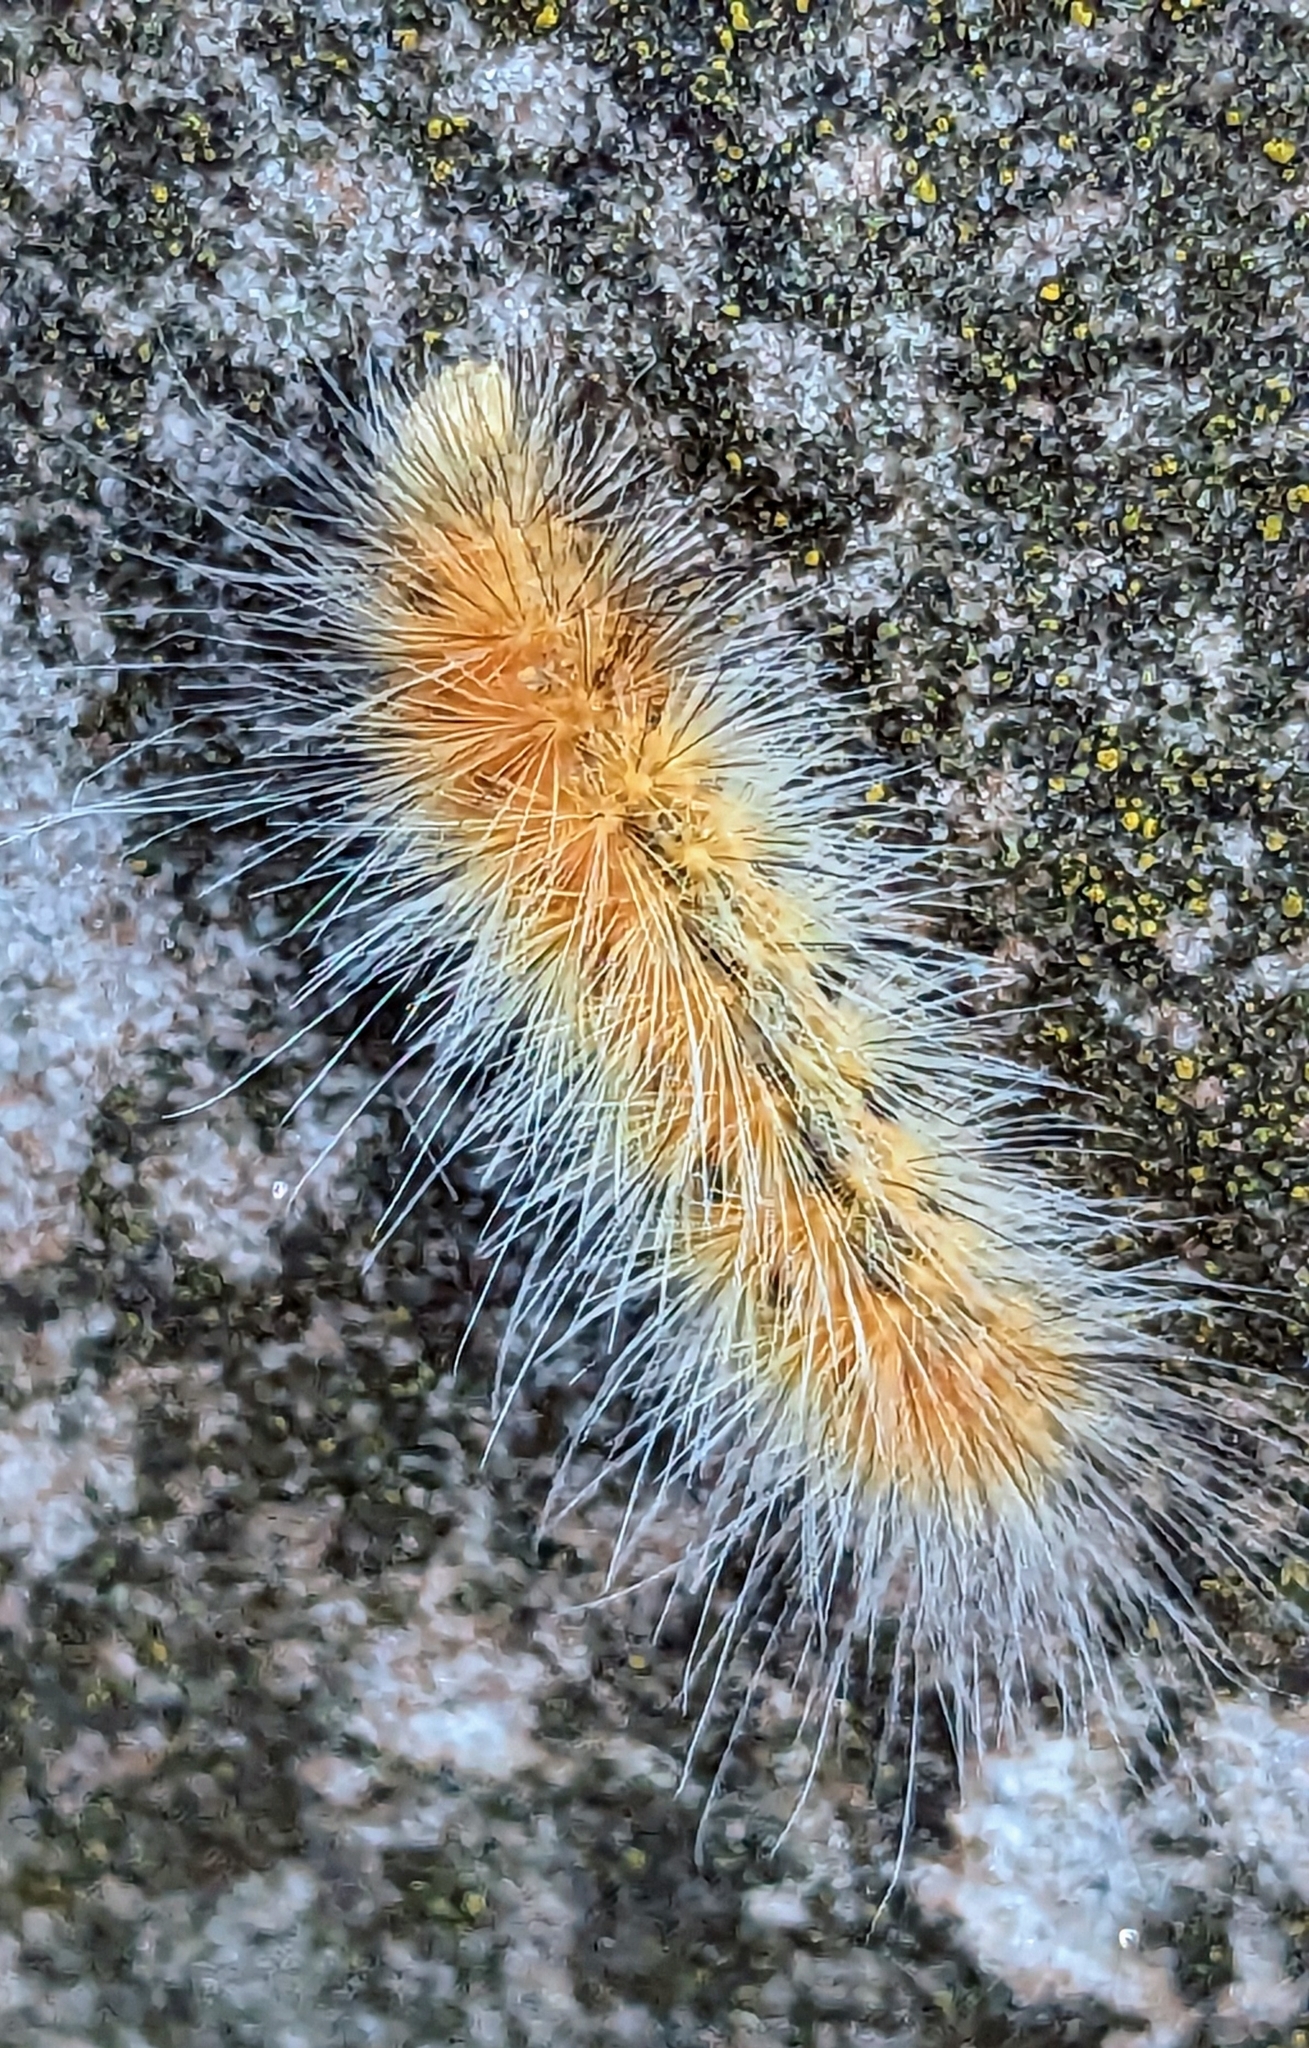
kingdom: Animalia
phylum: Arthropoda
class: Insecta
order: Lepidoptera
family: Erebidae
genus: Spilosoma
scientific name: Spilosoma virginica
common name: Virginia tiger moth
